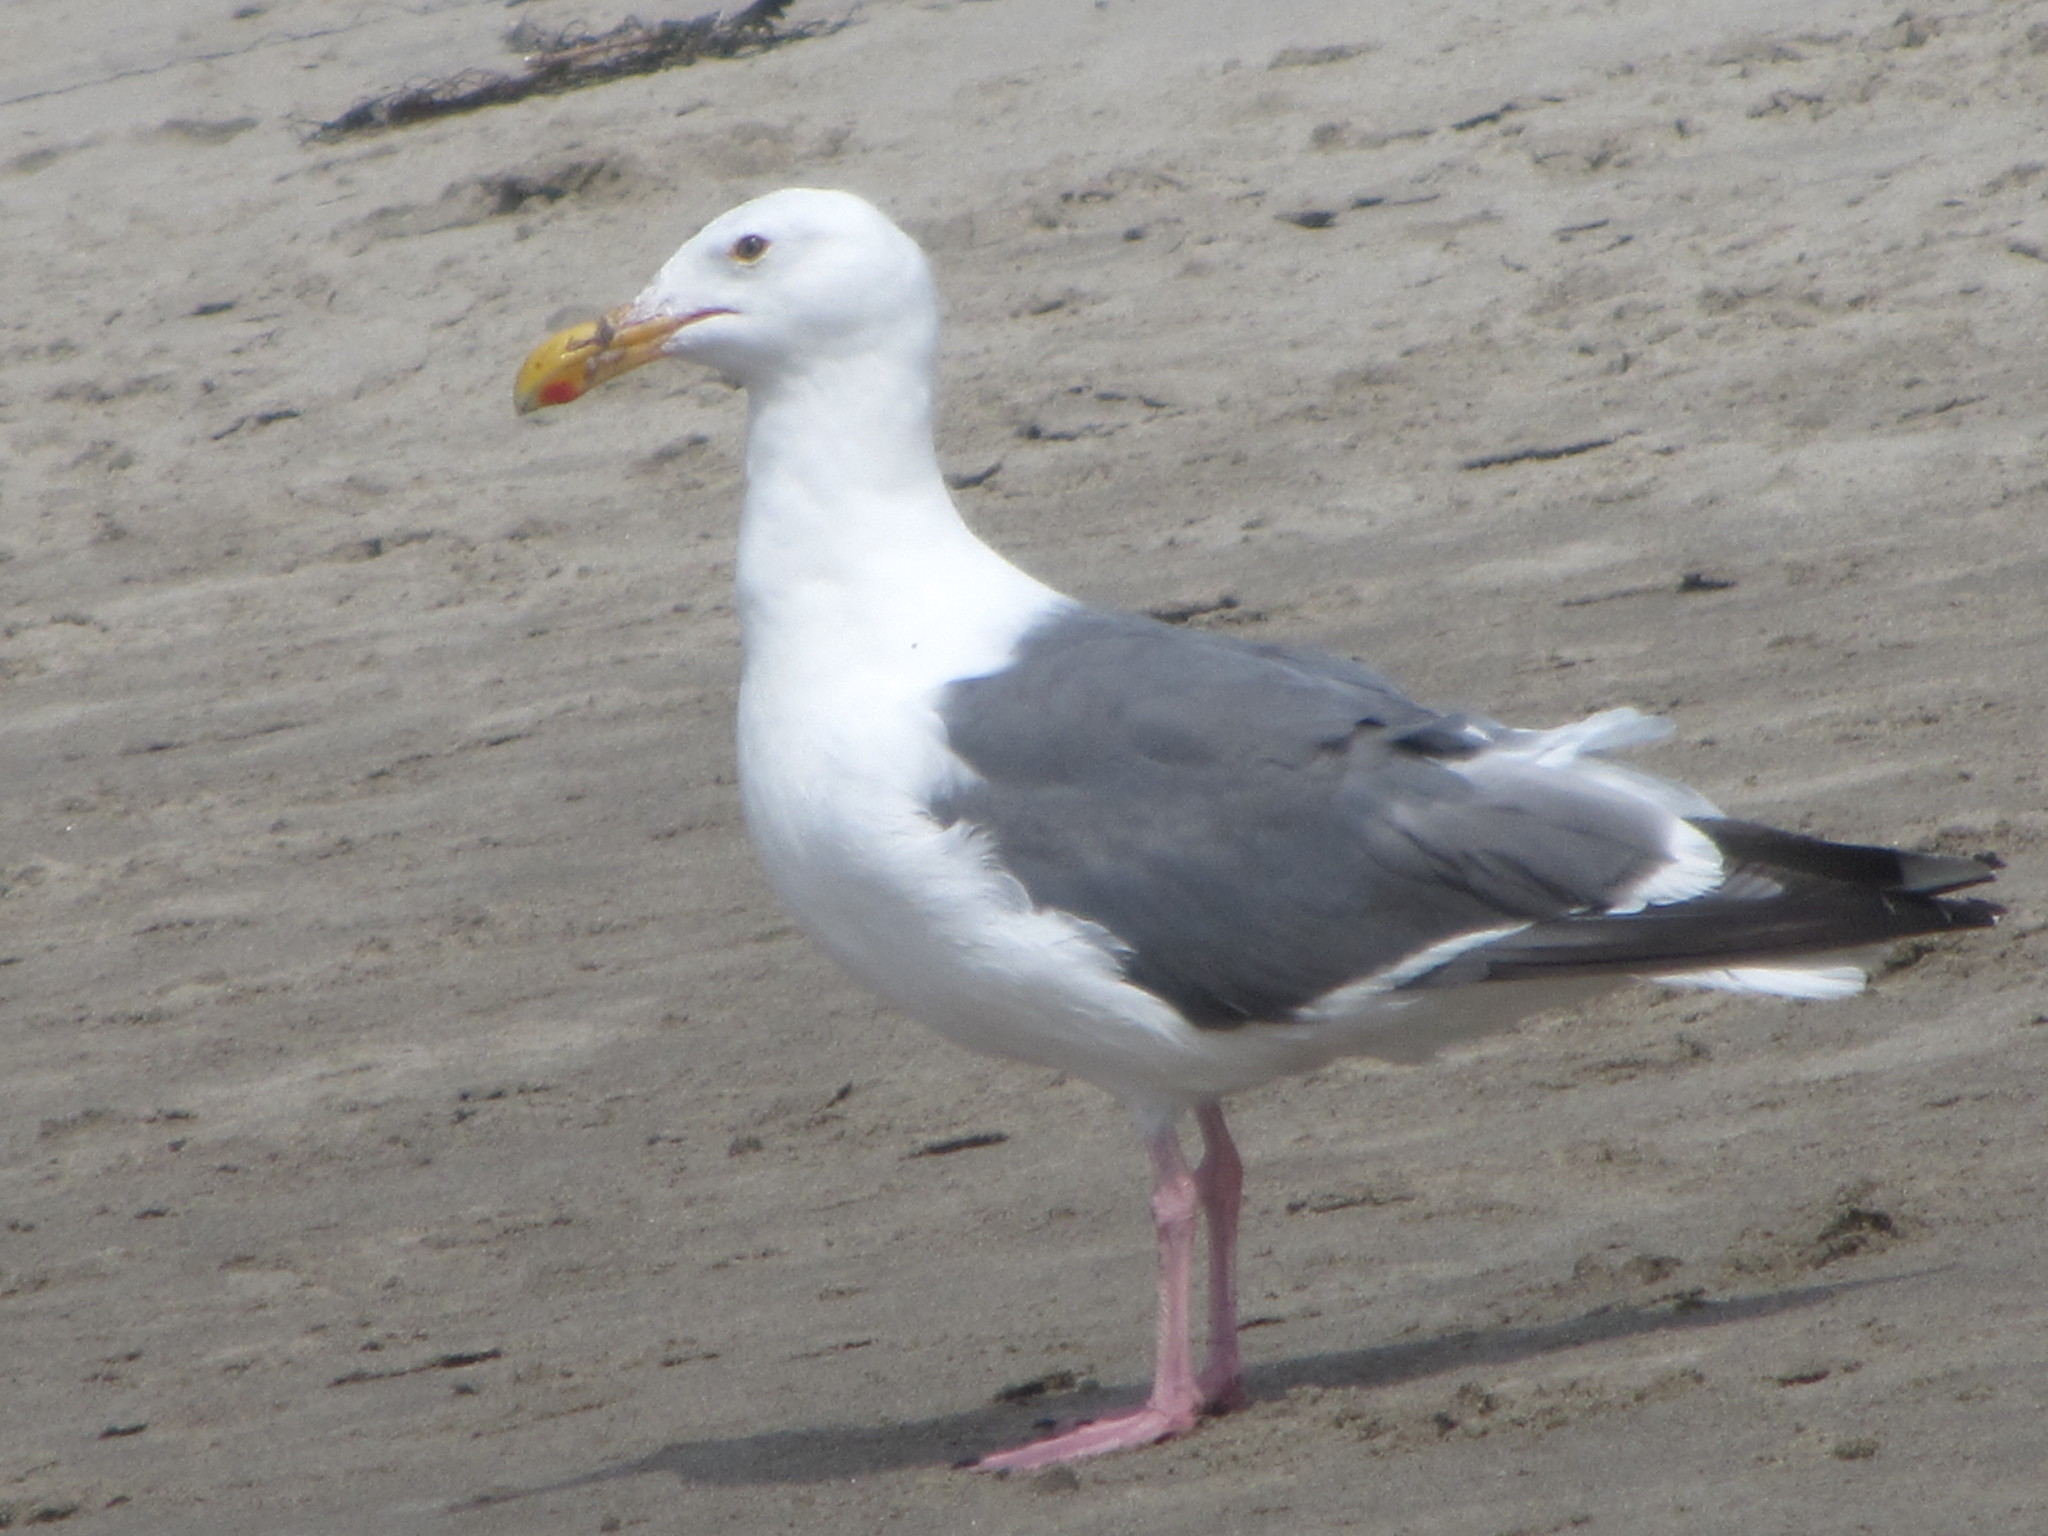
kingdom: Animalia
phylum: Chordata
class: Aves
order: Charadriiformes
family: Laridae
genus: Larus
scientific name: Larus occidentalis
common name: Western gull
